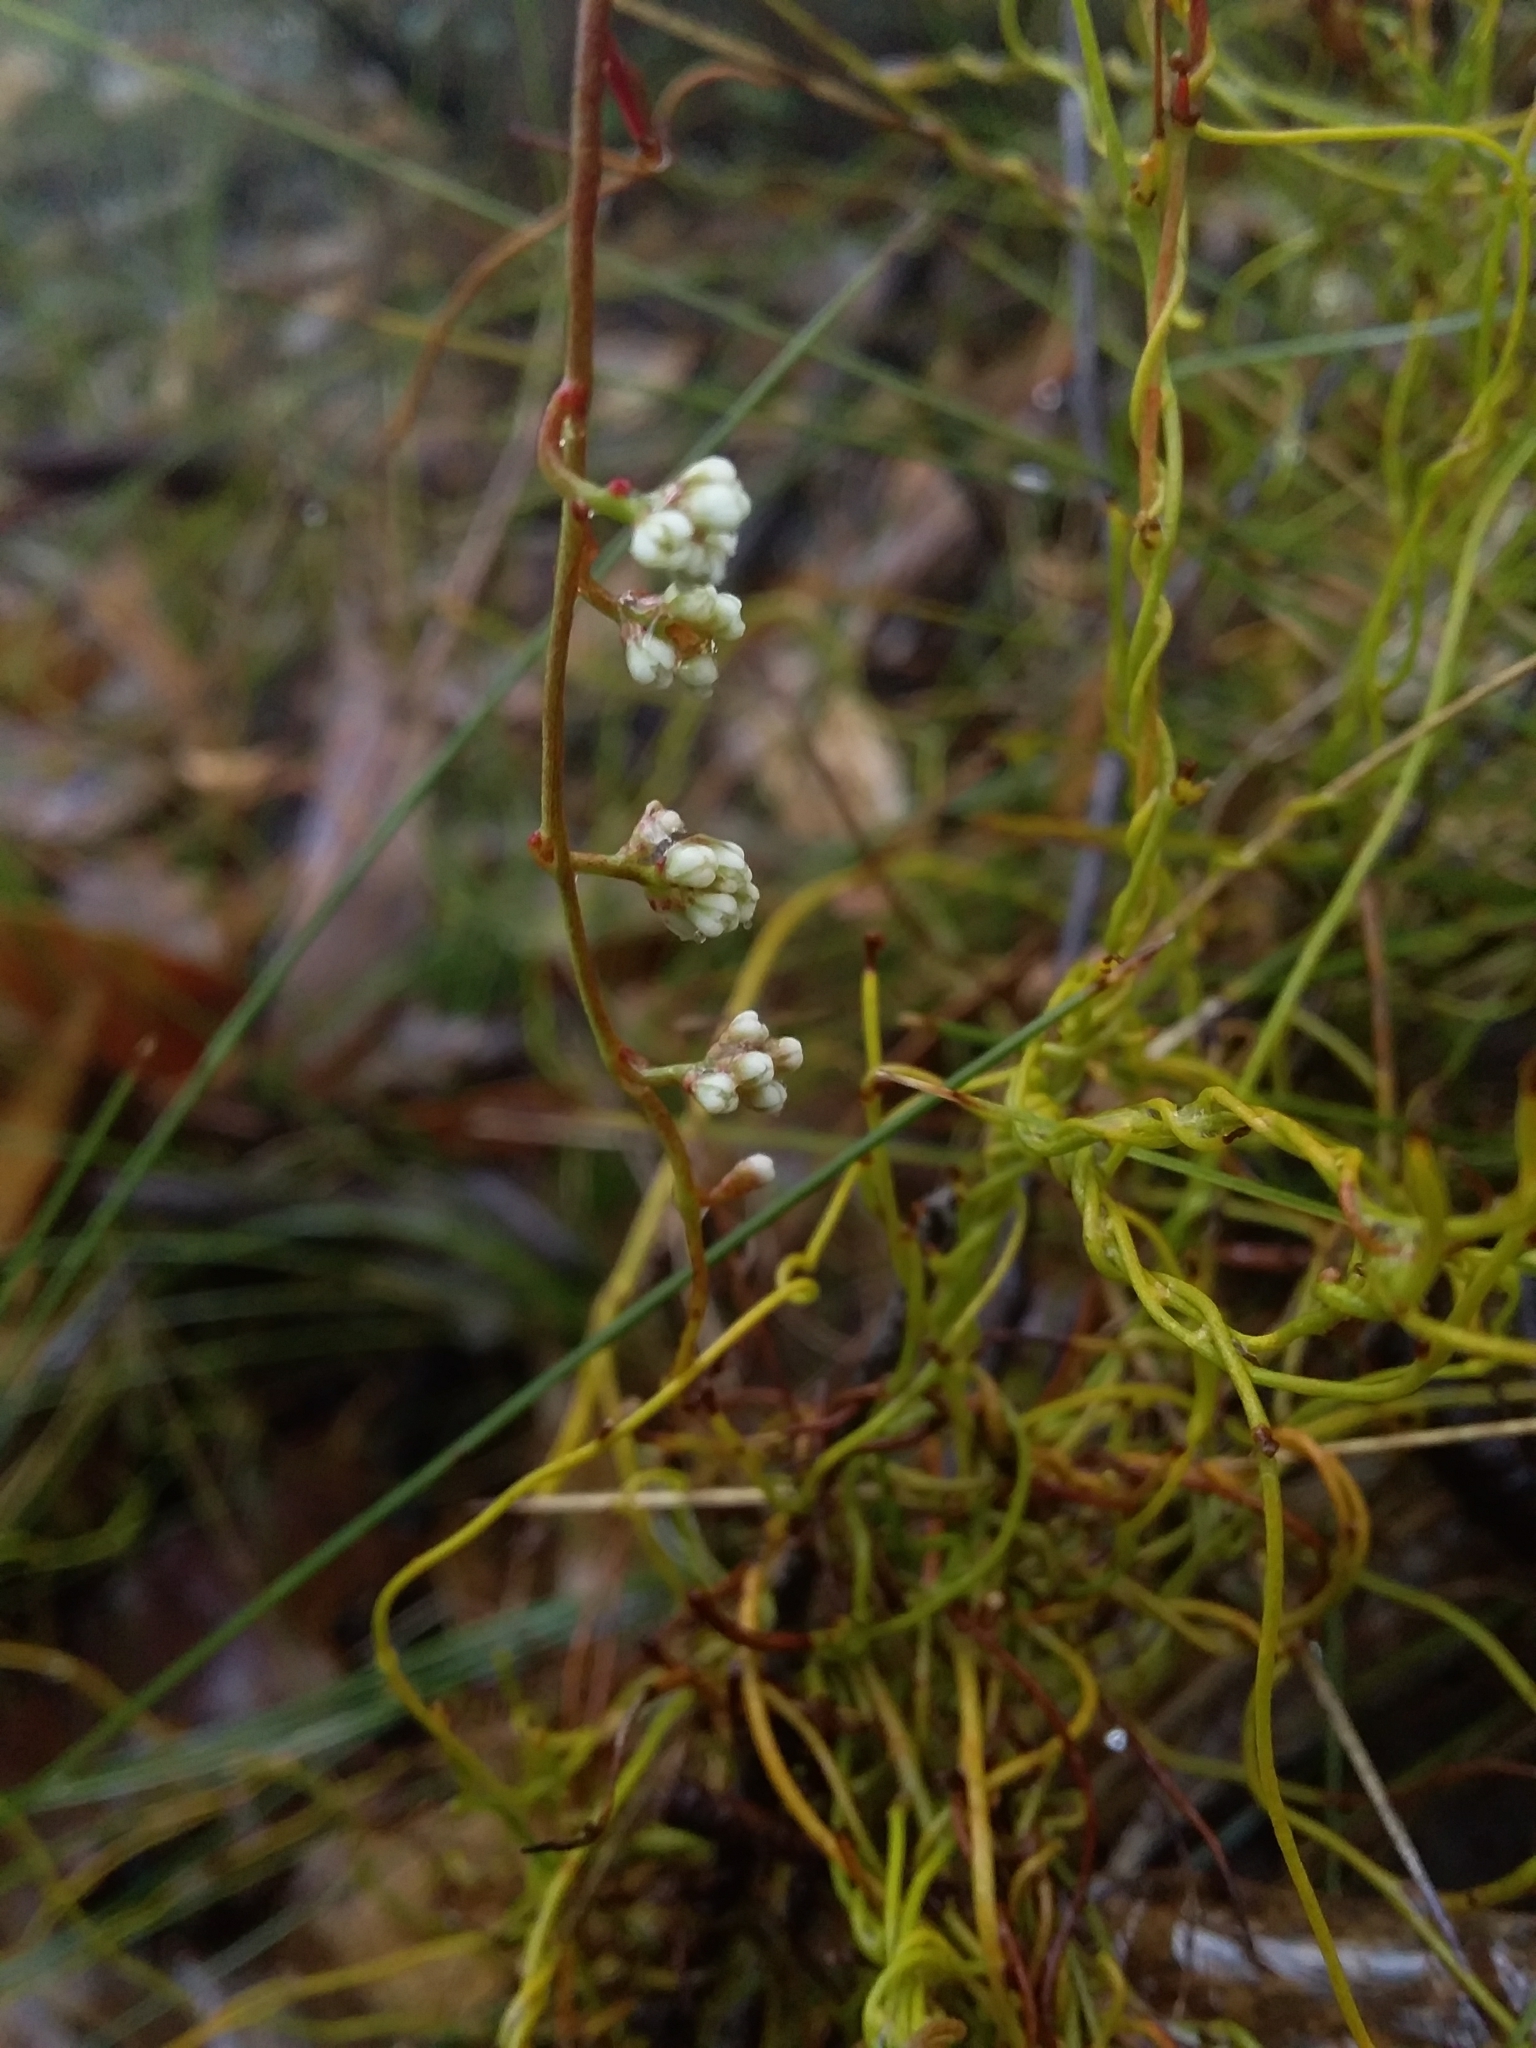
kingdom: Plantae
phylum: Tracheophyta
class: Magnoliopsida
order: Laurales
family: Lauraceae
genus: Cassytha
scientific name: Cassytha glabella
